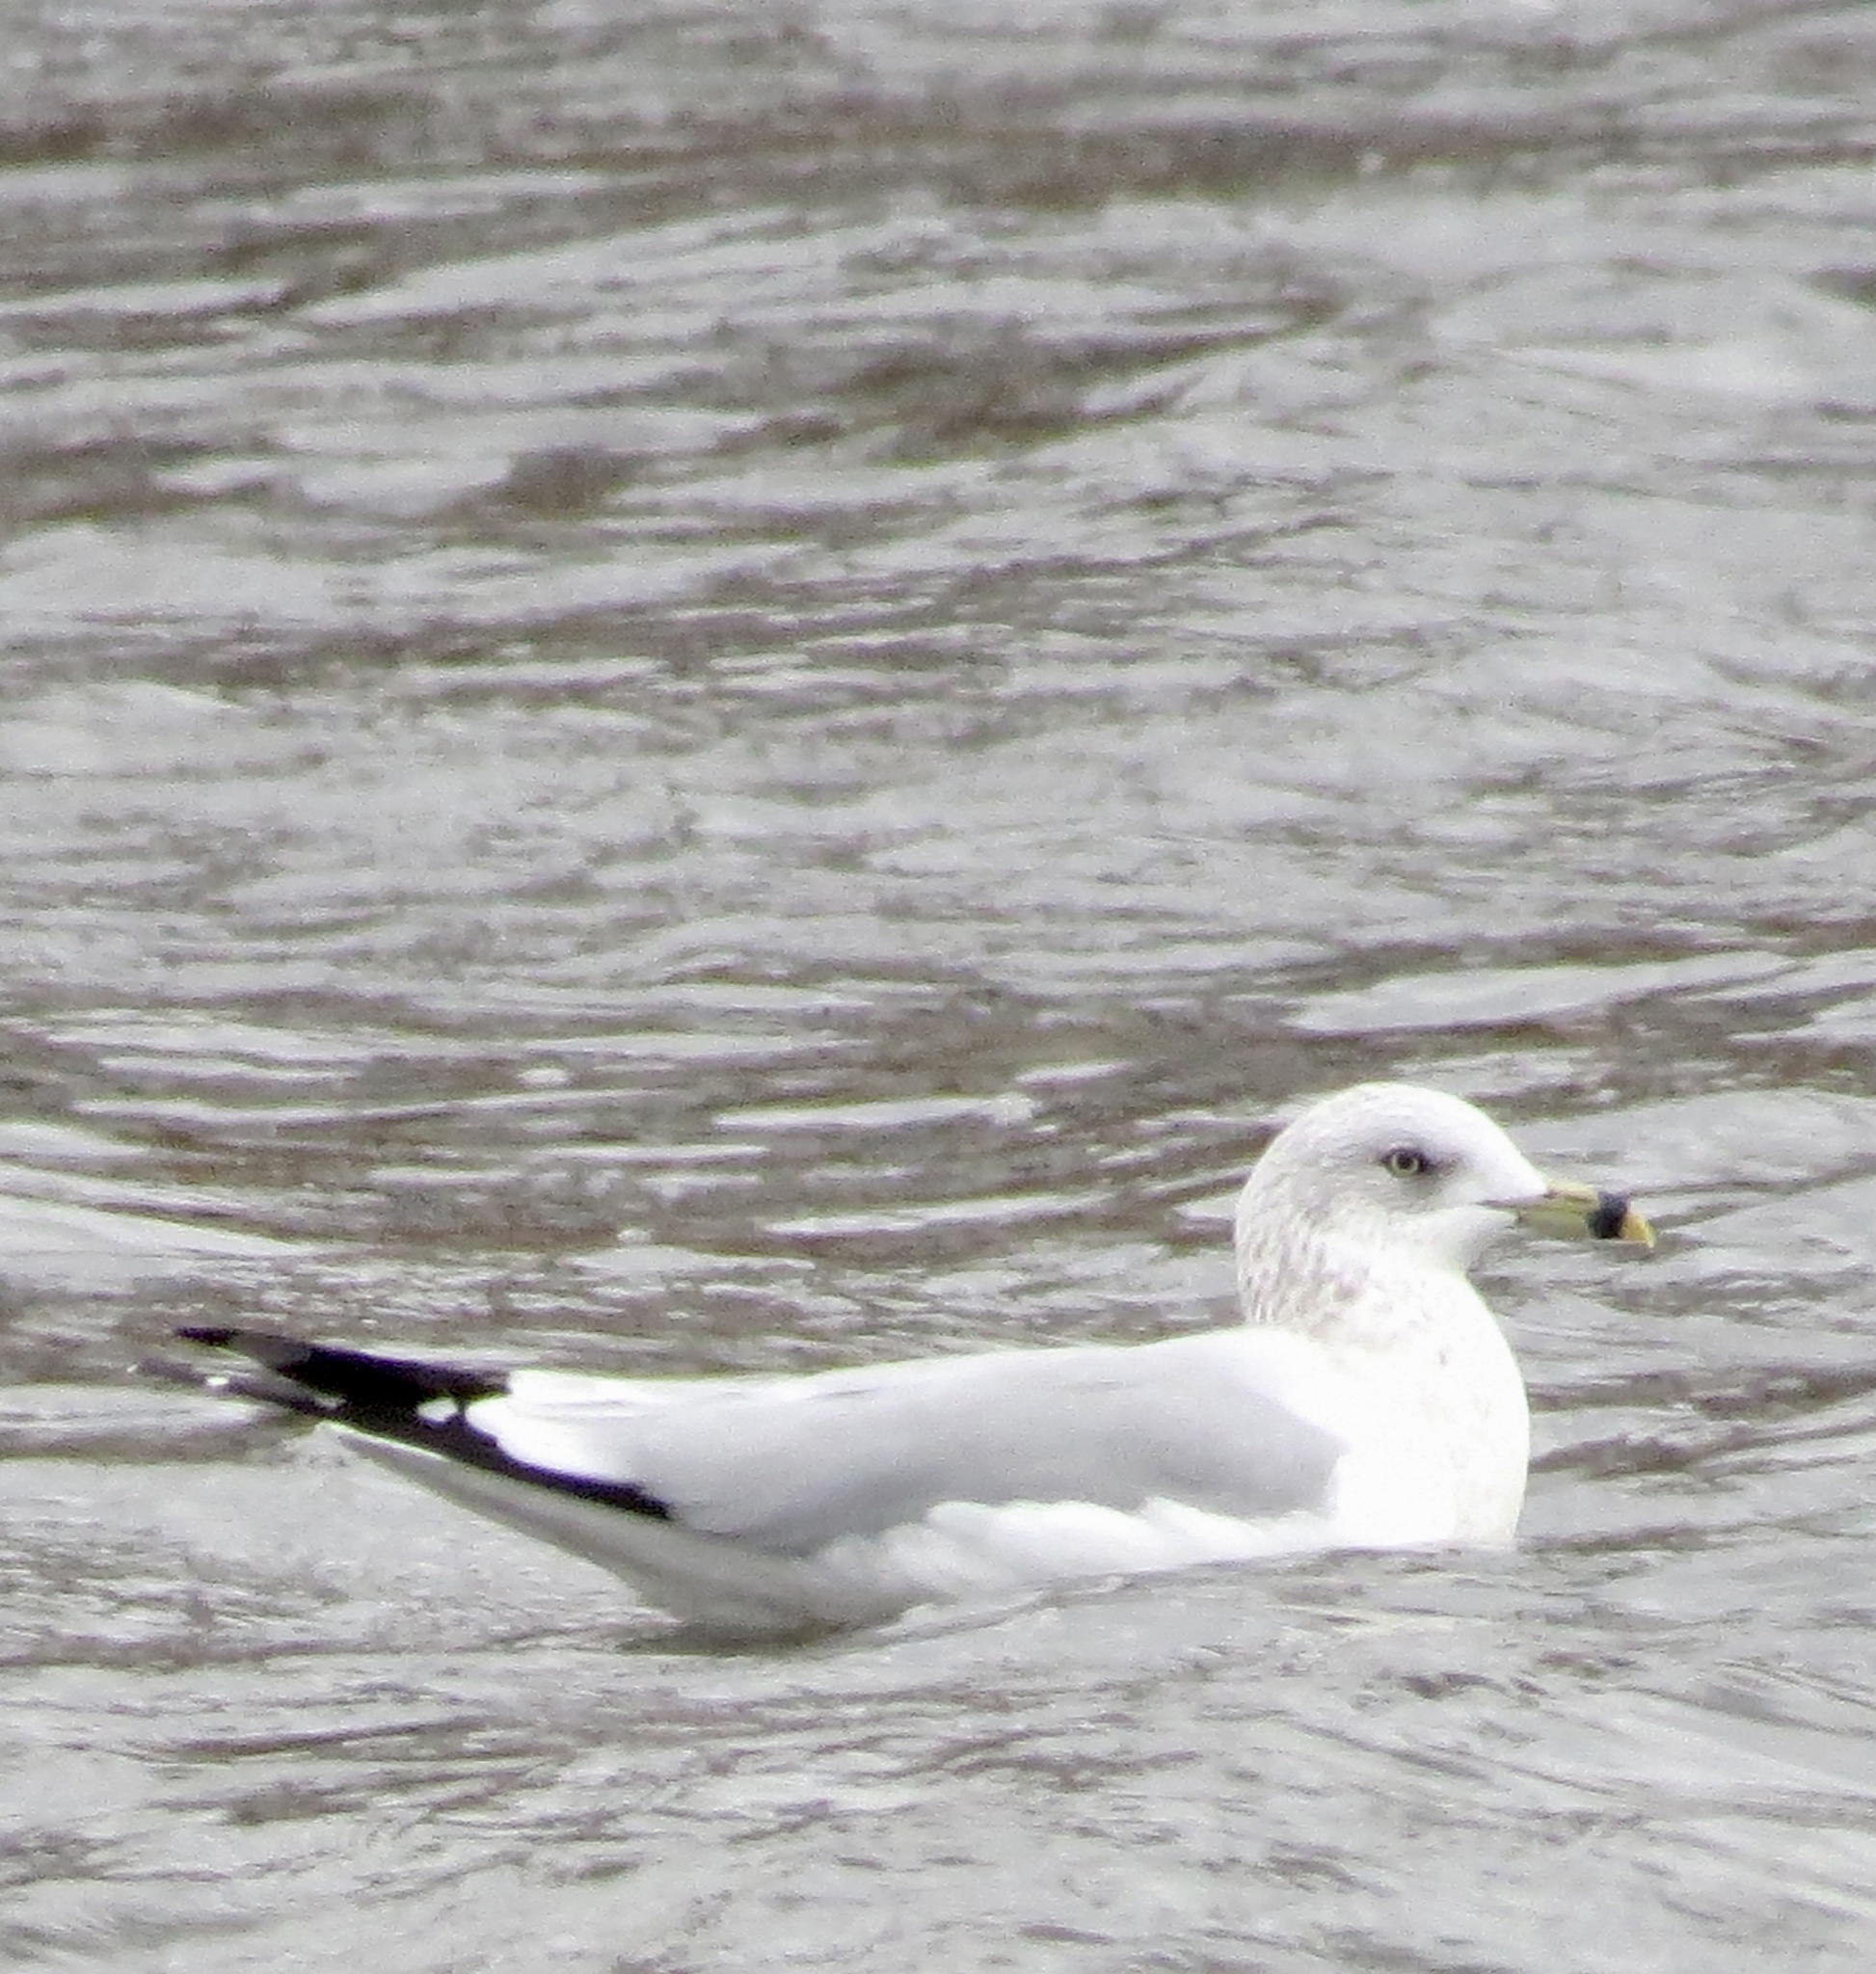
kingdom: Animalia
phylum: Chordata
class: Aves
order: Charadriiformes
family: Laridae
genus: Larus
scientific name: Larus delawarensis
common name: Ring-billed gull
